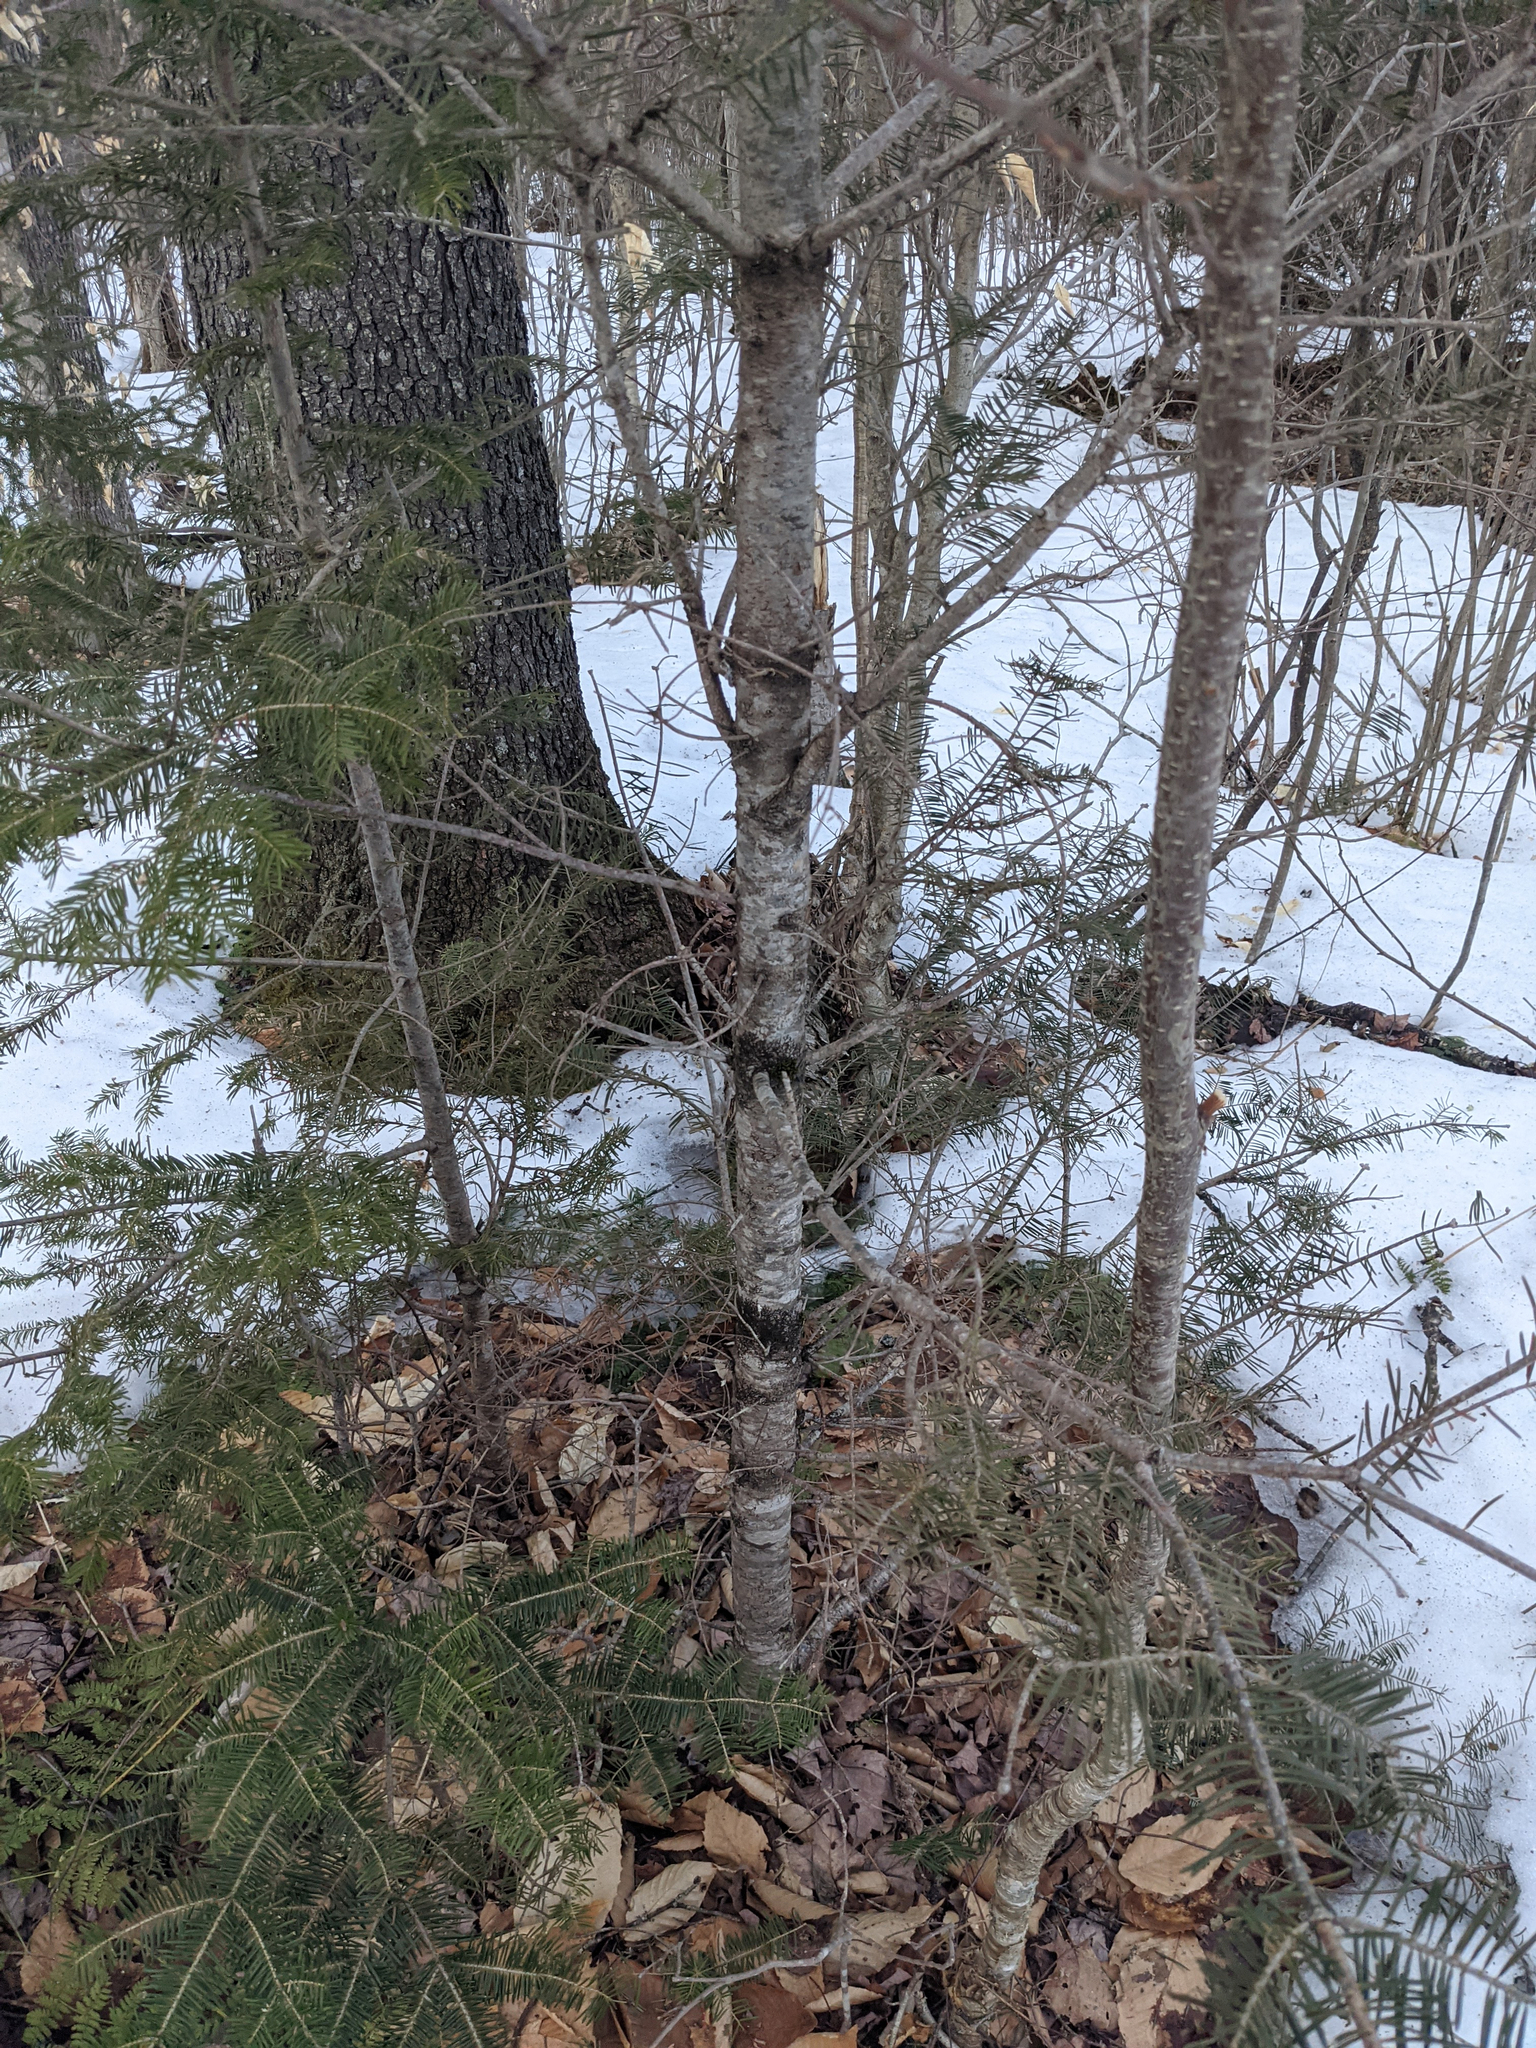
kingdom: Plantae
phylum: Tracheophyta
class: Pinopsida
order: Pinales
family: Pinaceae
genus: Abies
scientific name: Abies balsamea
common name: Balsam fir
